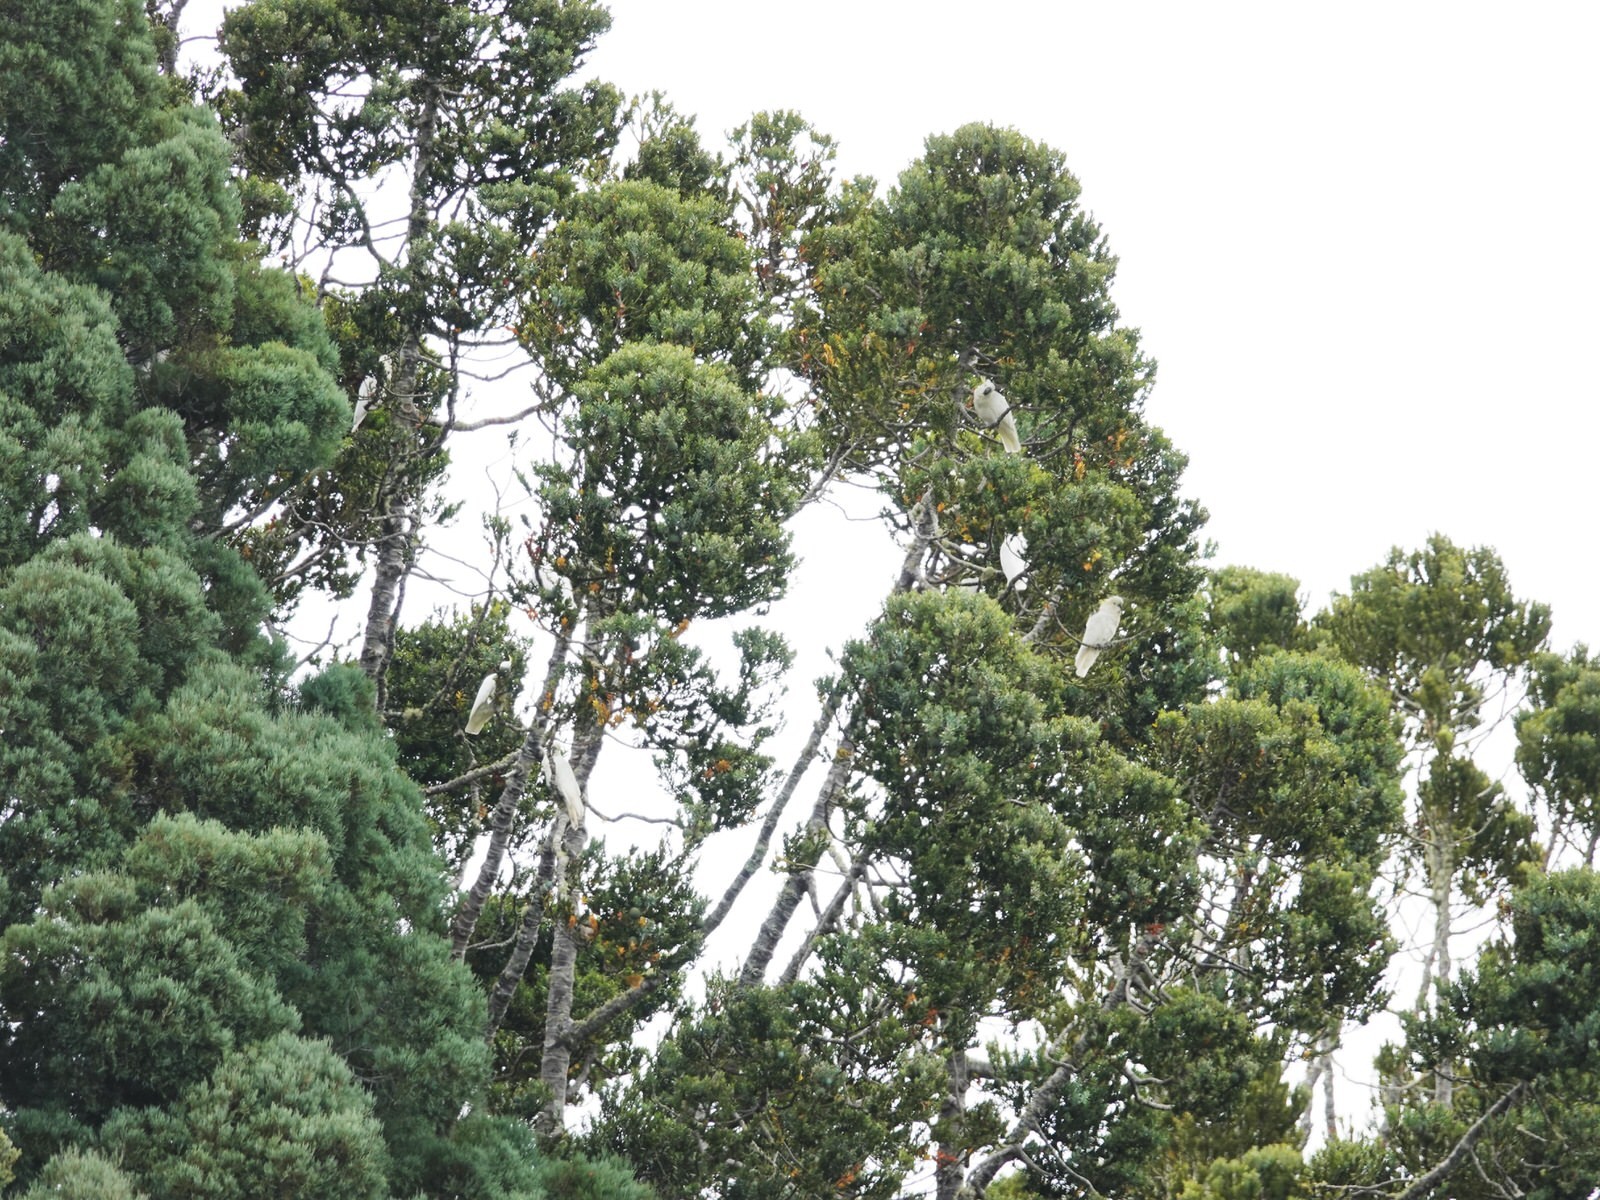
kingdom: Animalia
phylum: Chordata
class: Aves
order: Psittaciformes
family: Psittacidae
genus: Cacatua
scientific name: Cacatua galerita
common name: Sulphur-crested cockatoo
